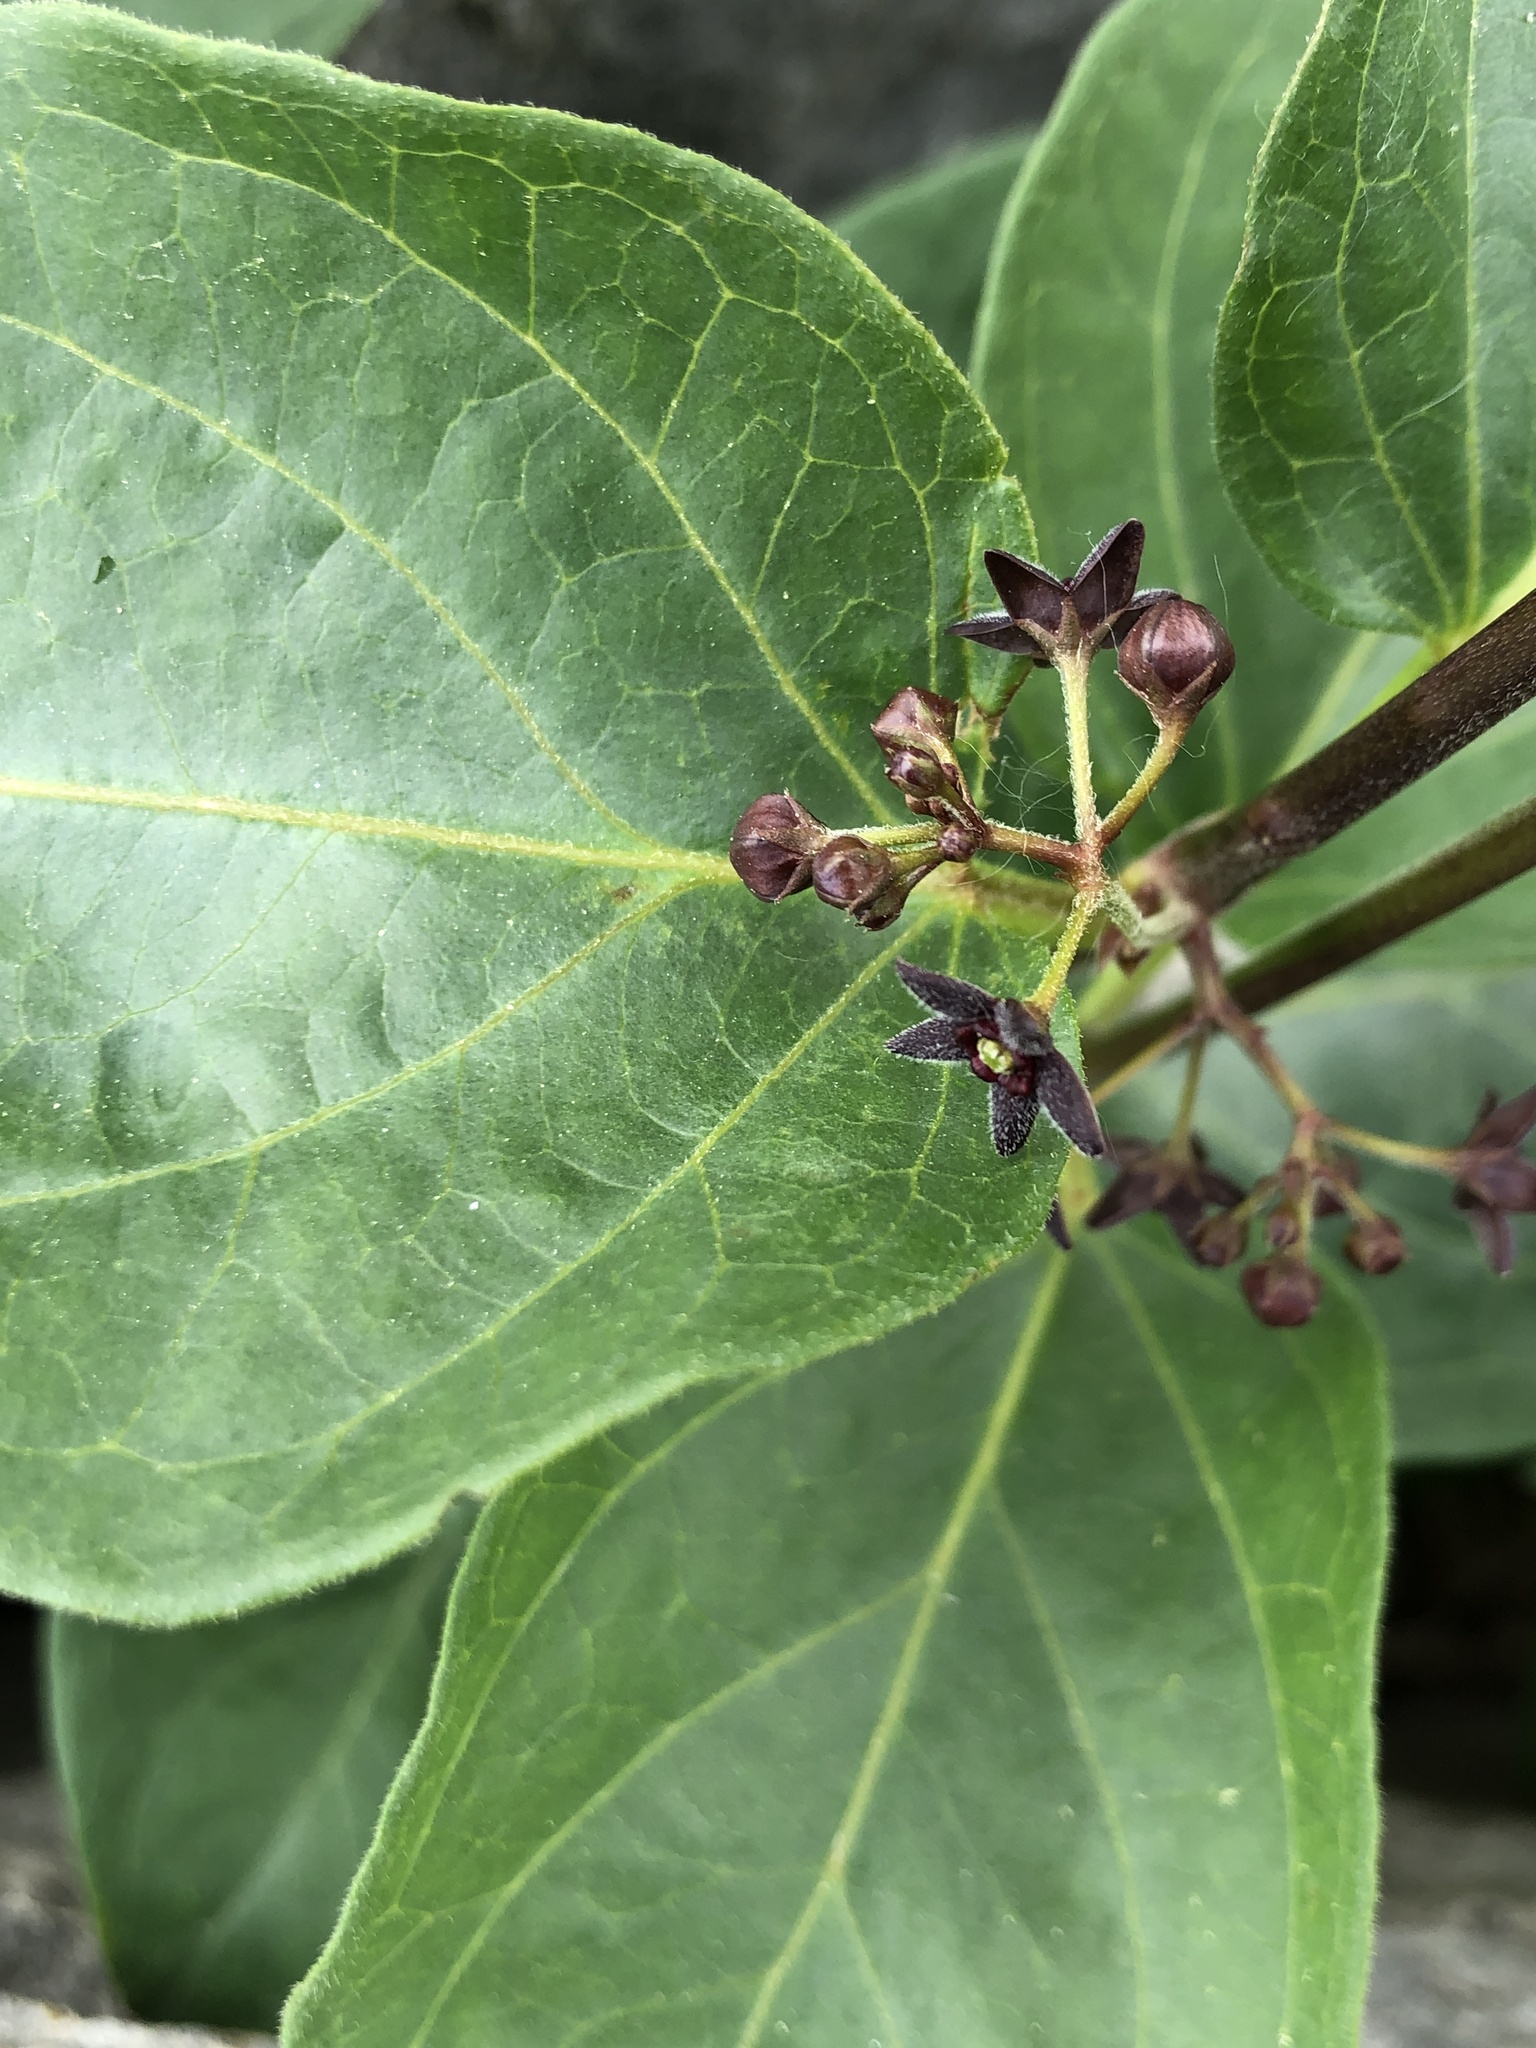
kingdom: Plantae
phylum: Tracheophyta
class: Magnoliopsida
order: Gentianales
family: Apocynaceae
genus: Vincetoxicum
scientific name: Vincetoxicum nigrum
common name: Black swallow-wort
